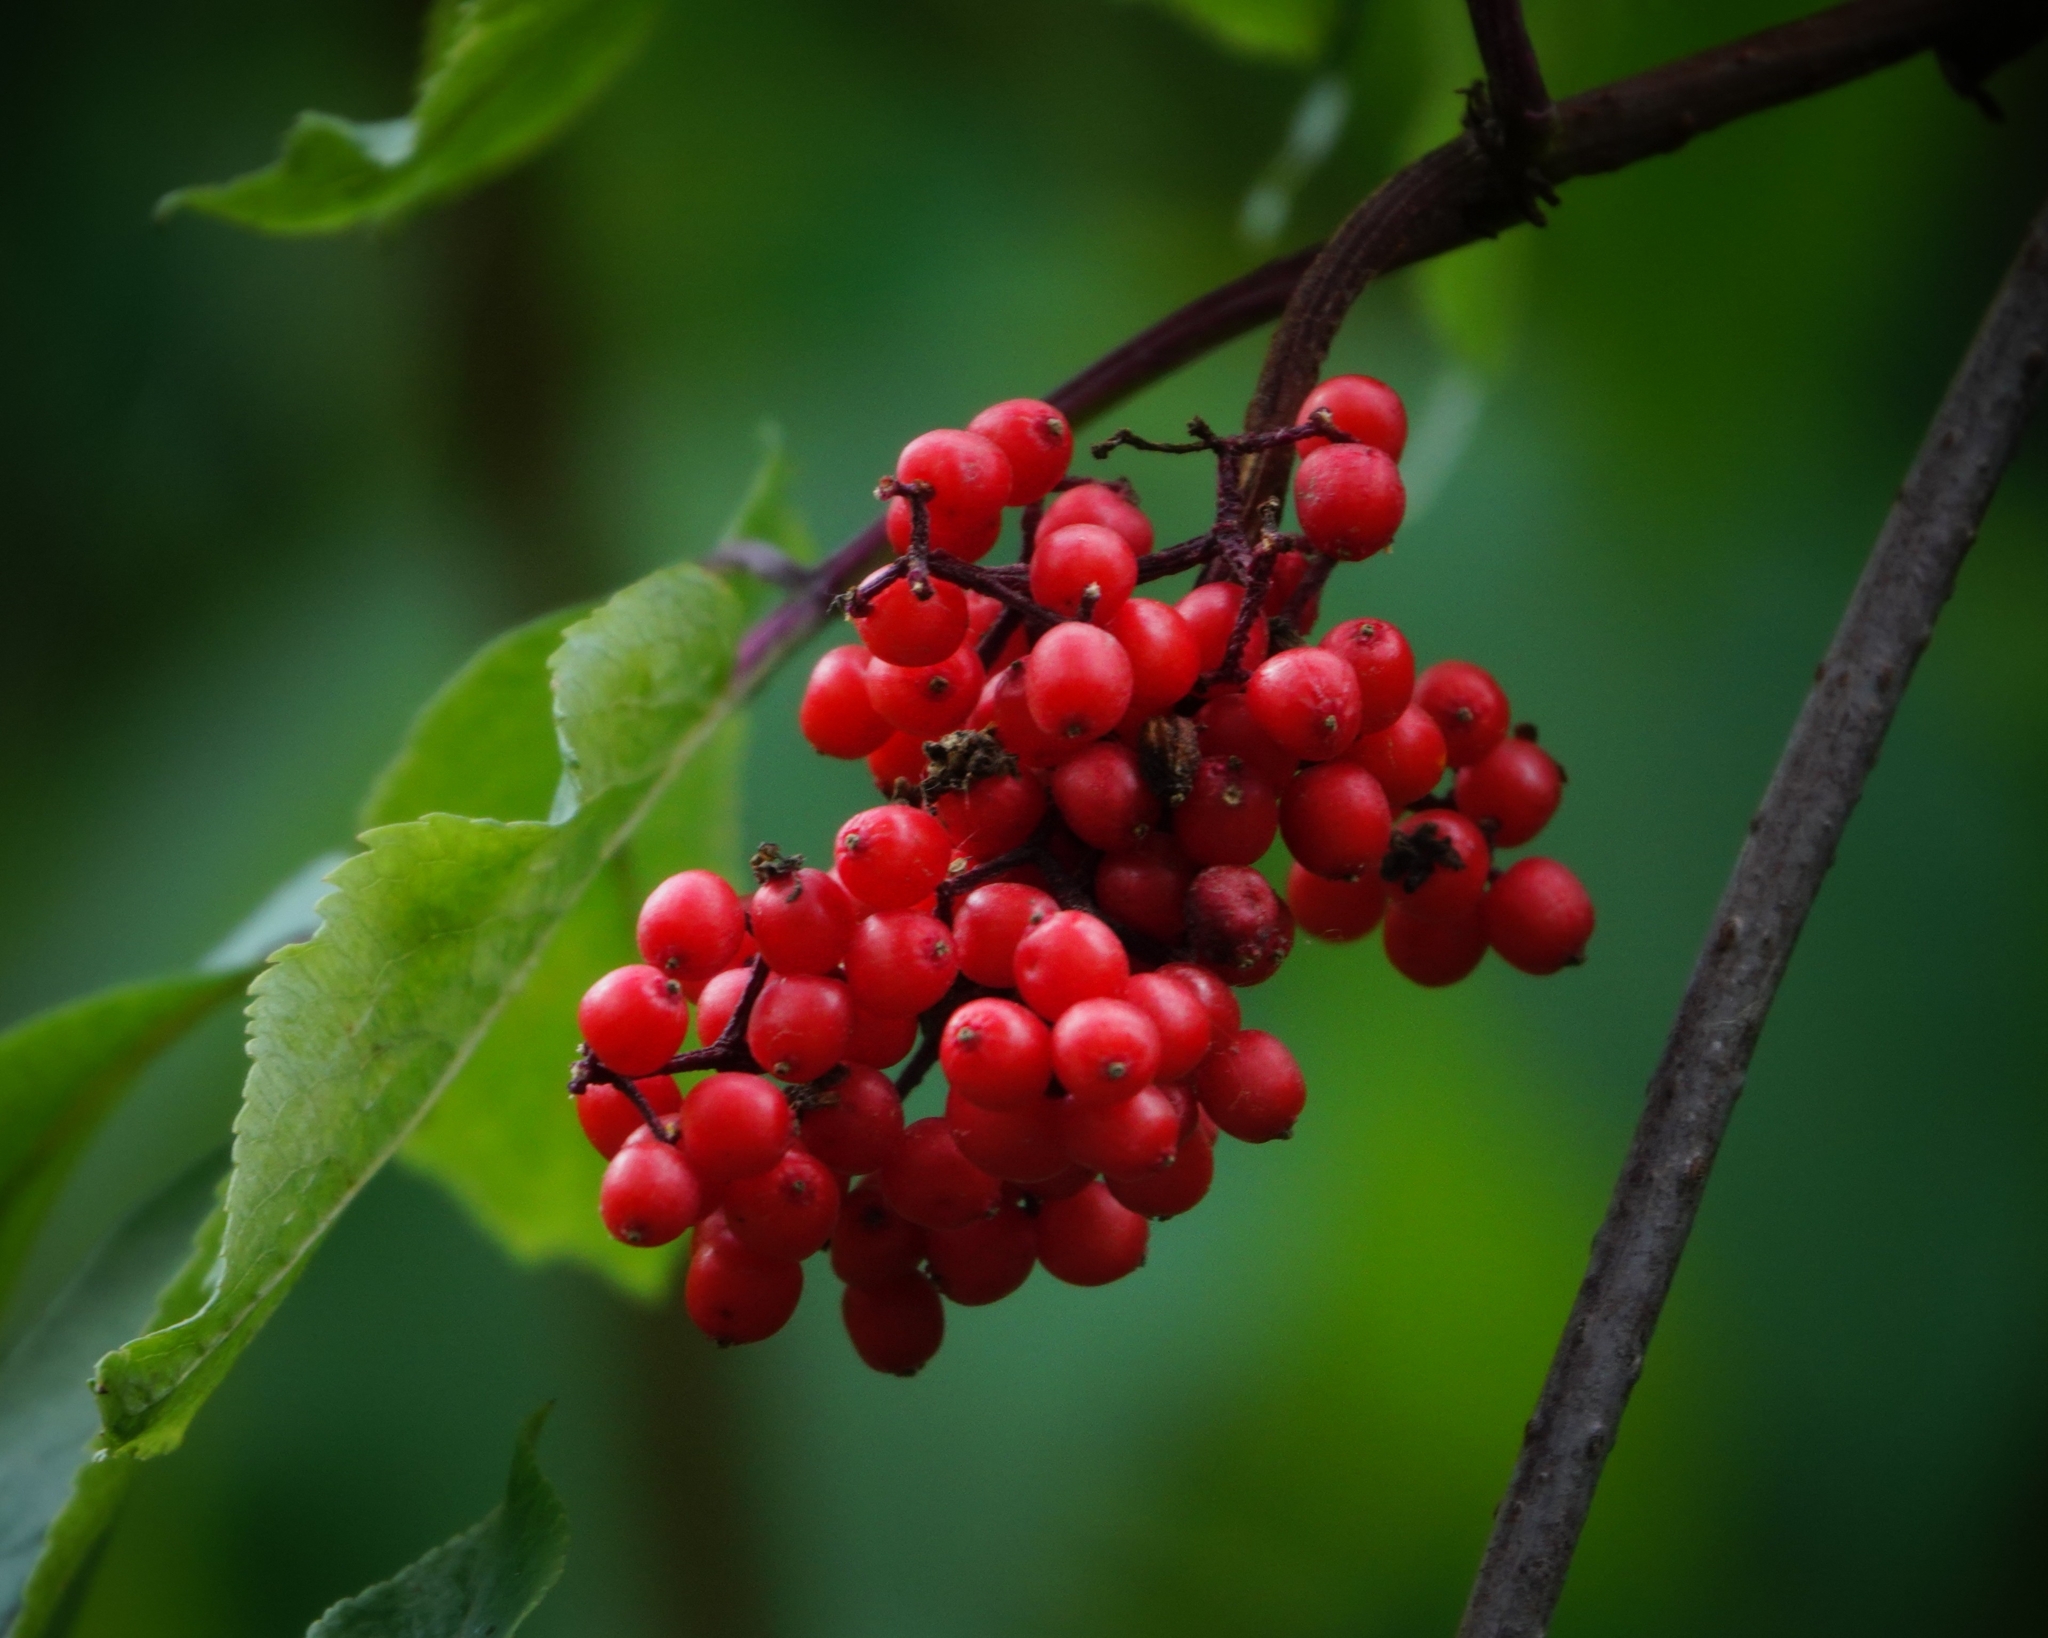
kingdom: Plantae
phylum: Tracheophyta
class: Magnoliopsida
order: Dipsacales
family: Viburnaceae
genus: Sambucus
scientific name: Sambucus racemosa
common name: Red-berried elder
